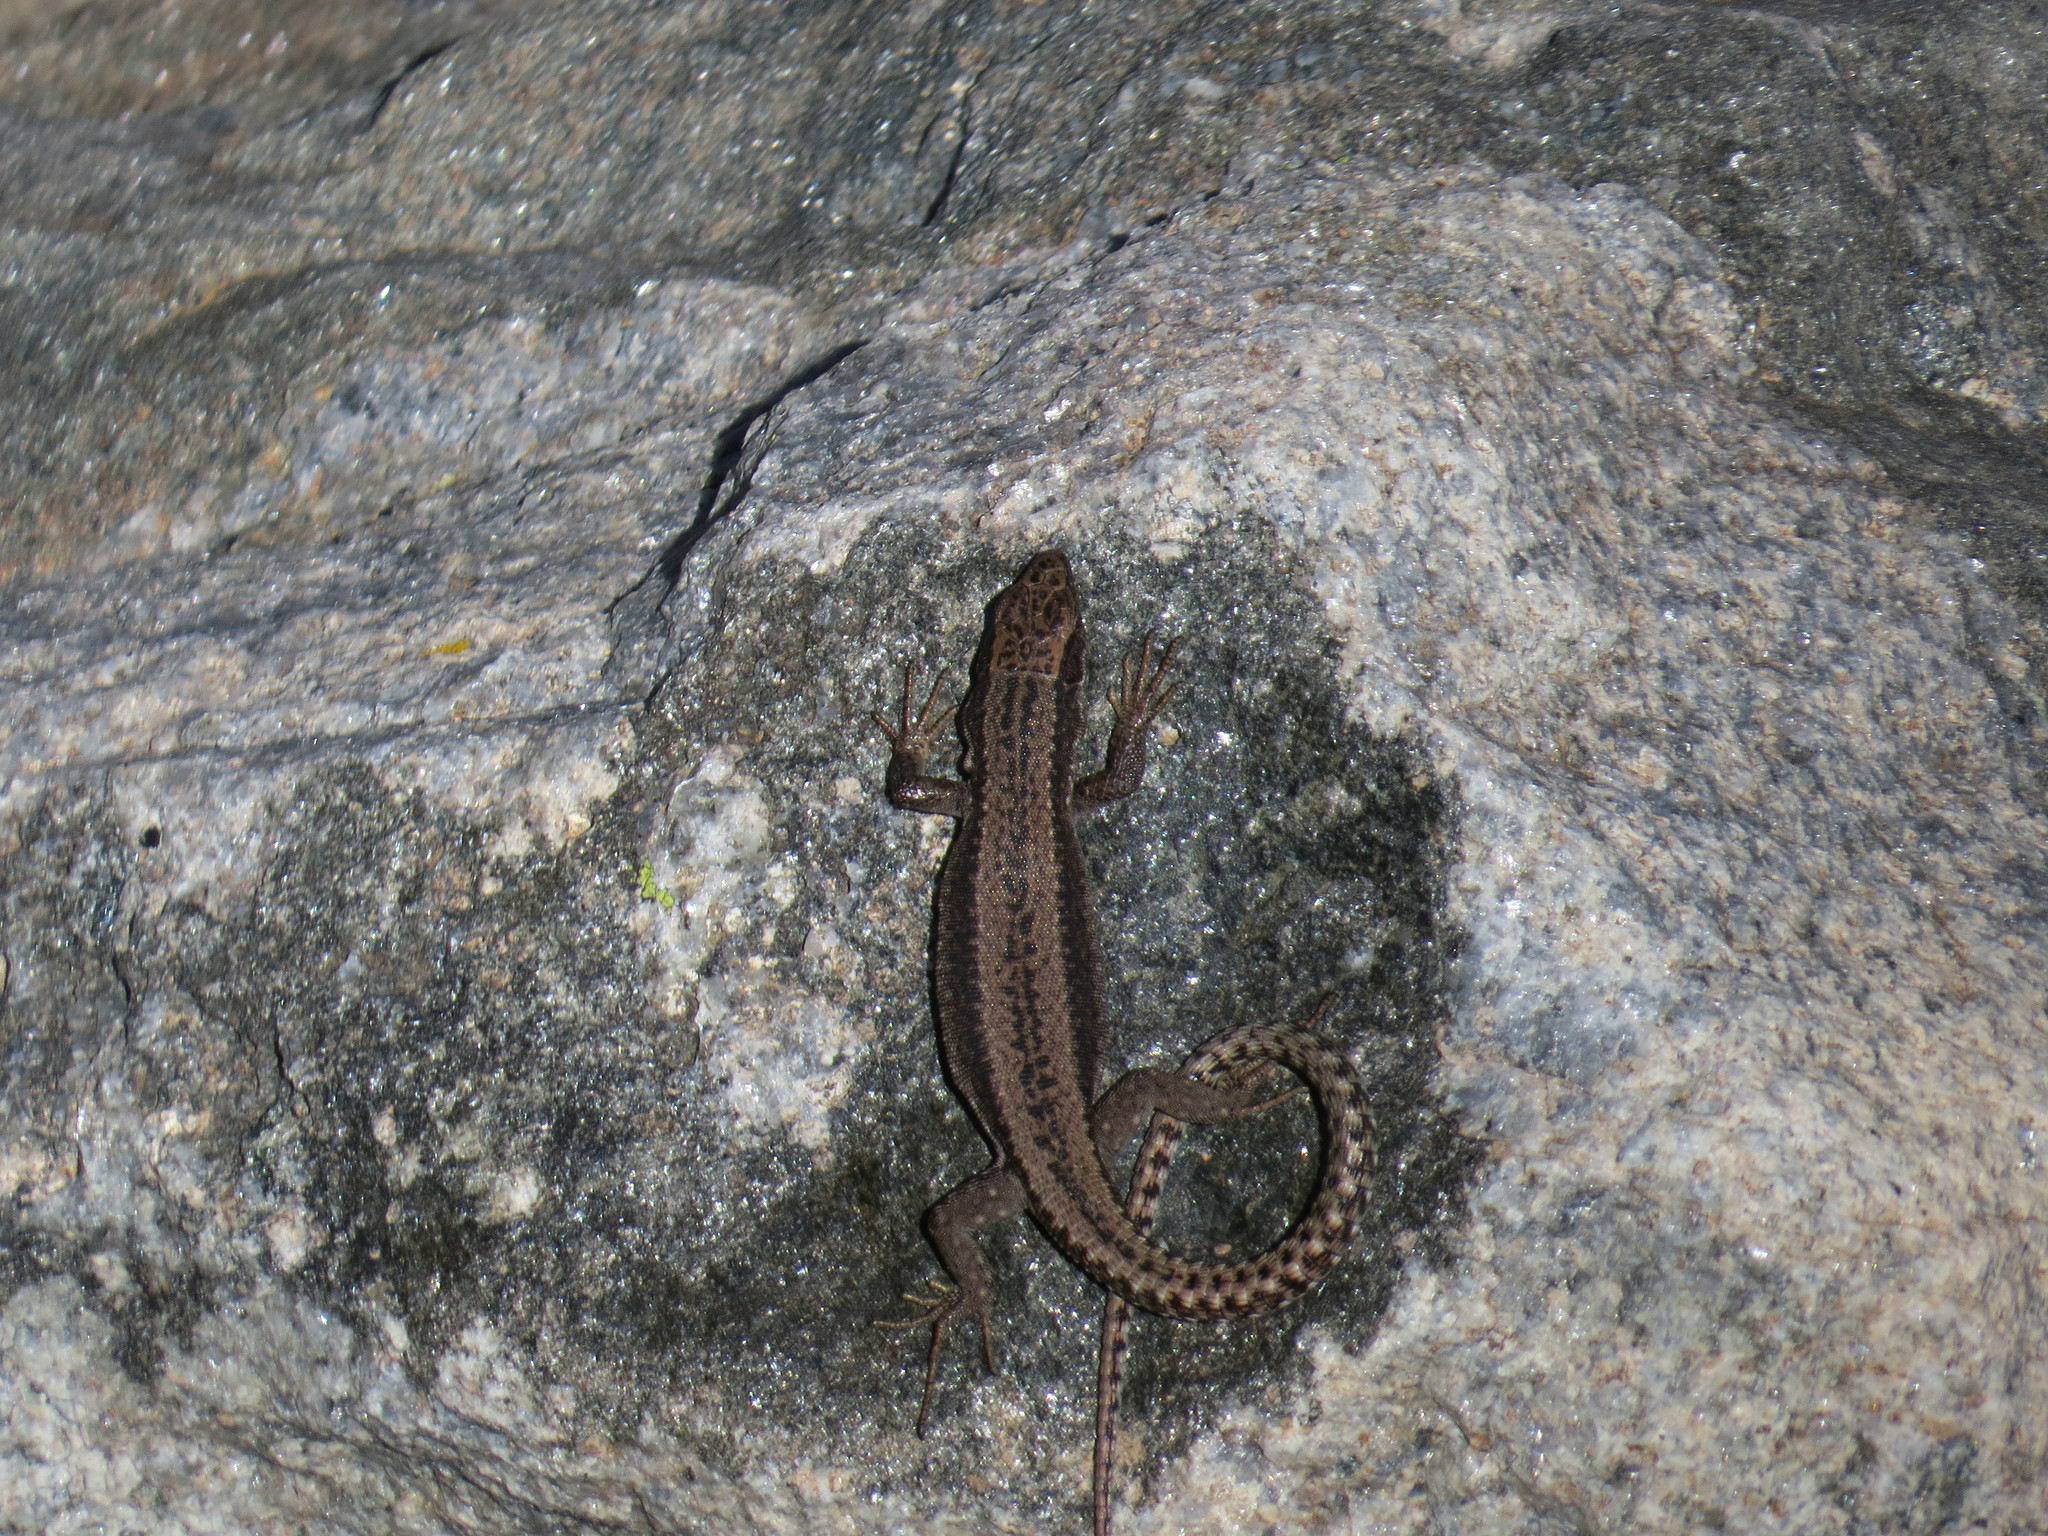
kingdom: Animalia
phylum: Chordata
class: Squamata
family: Lacertidae
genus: Iberolacerta
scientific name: Iberolacerta cyreni
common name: Cyren’s rock lizard
